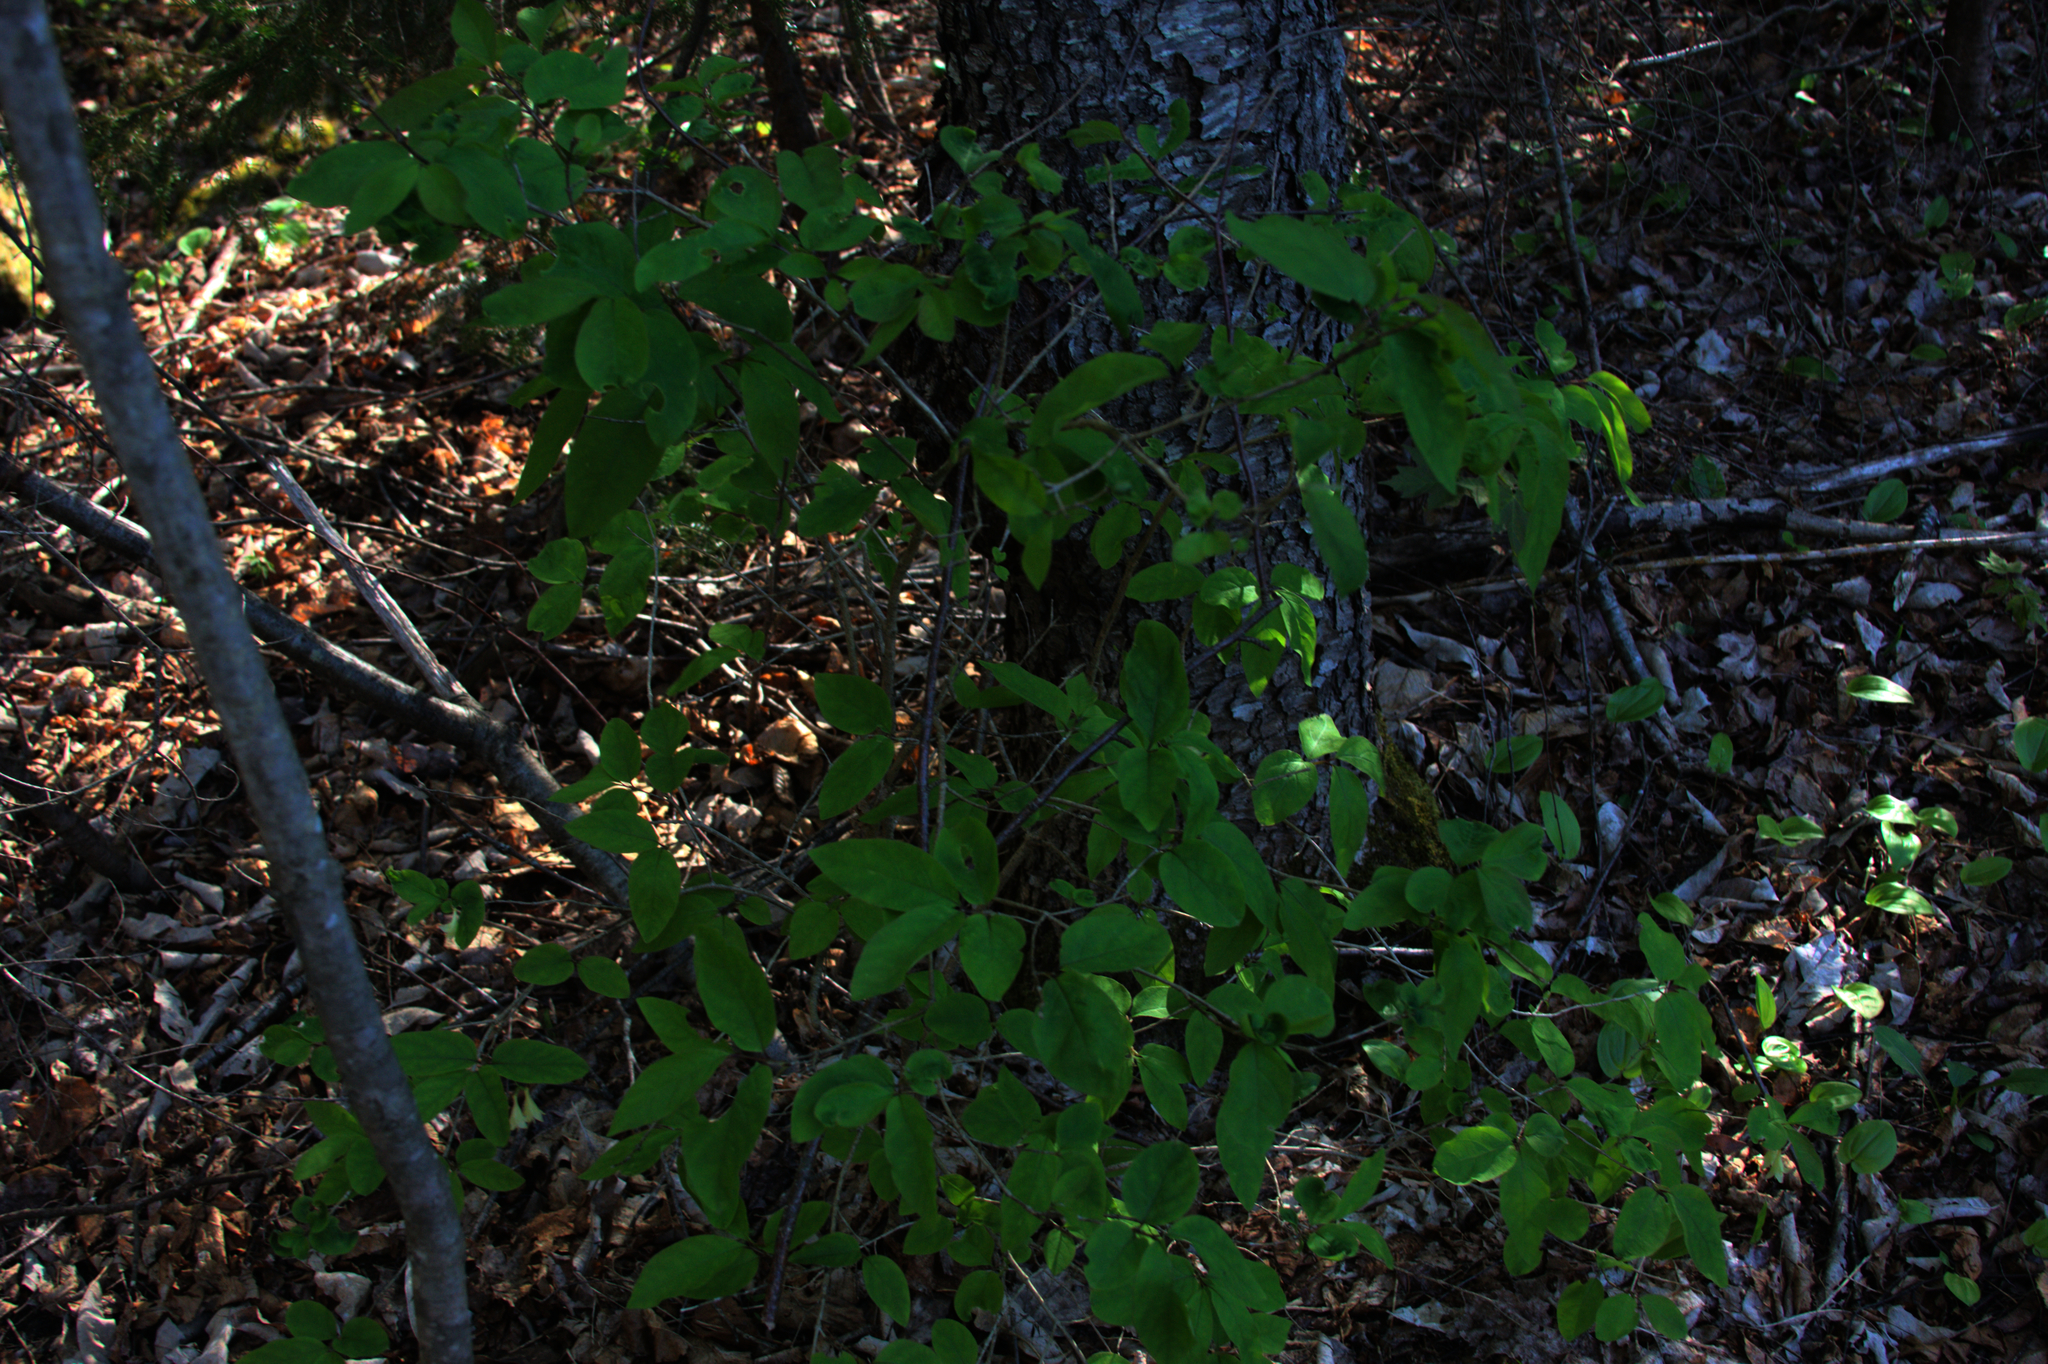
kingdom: Plantae
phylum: Tracheophyta
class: Magnoliopsida
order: Dipsacales
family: Caprifoliaceae
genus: Lonicera
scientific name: Lonicera canadensis
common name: American fly-honeysuckle
